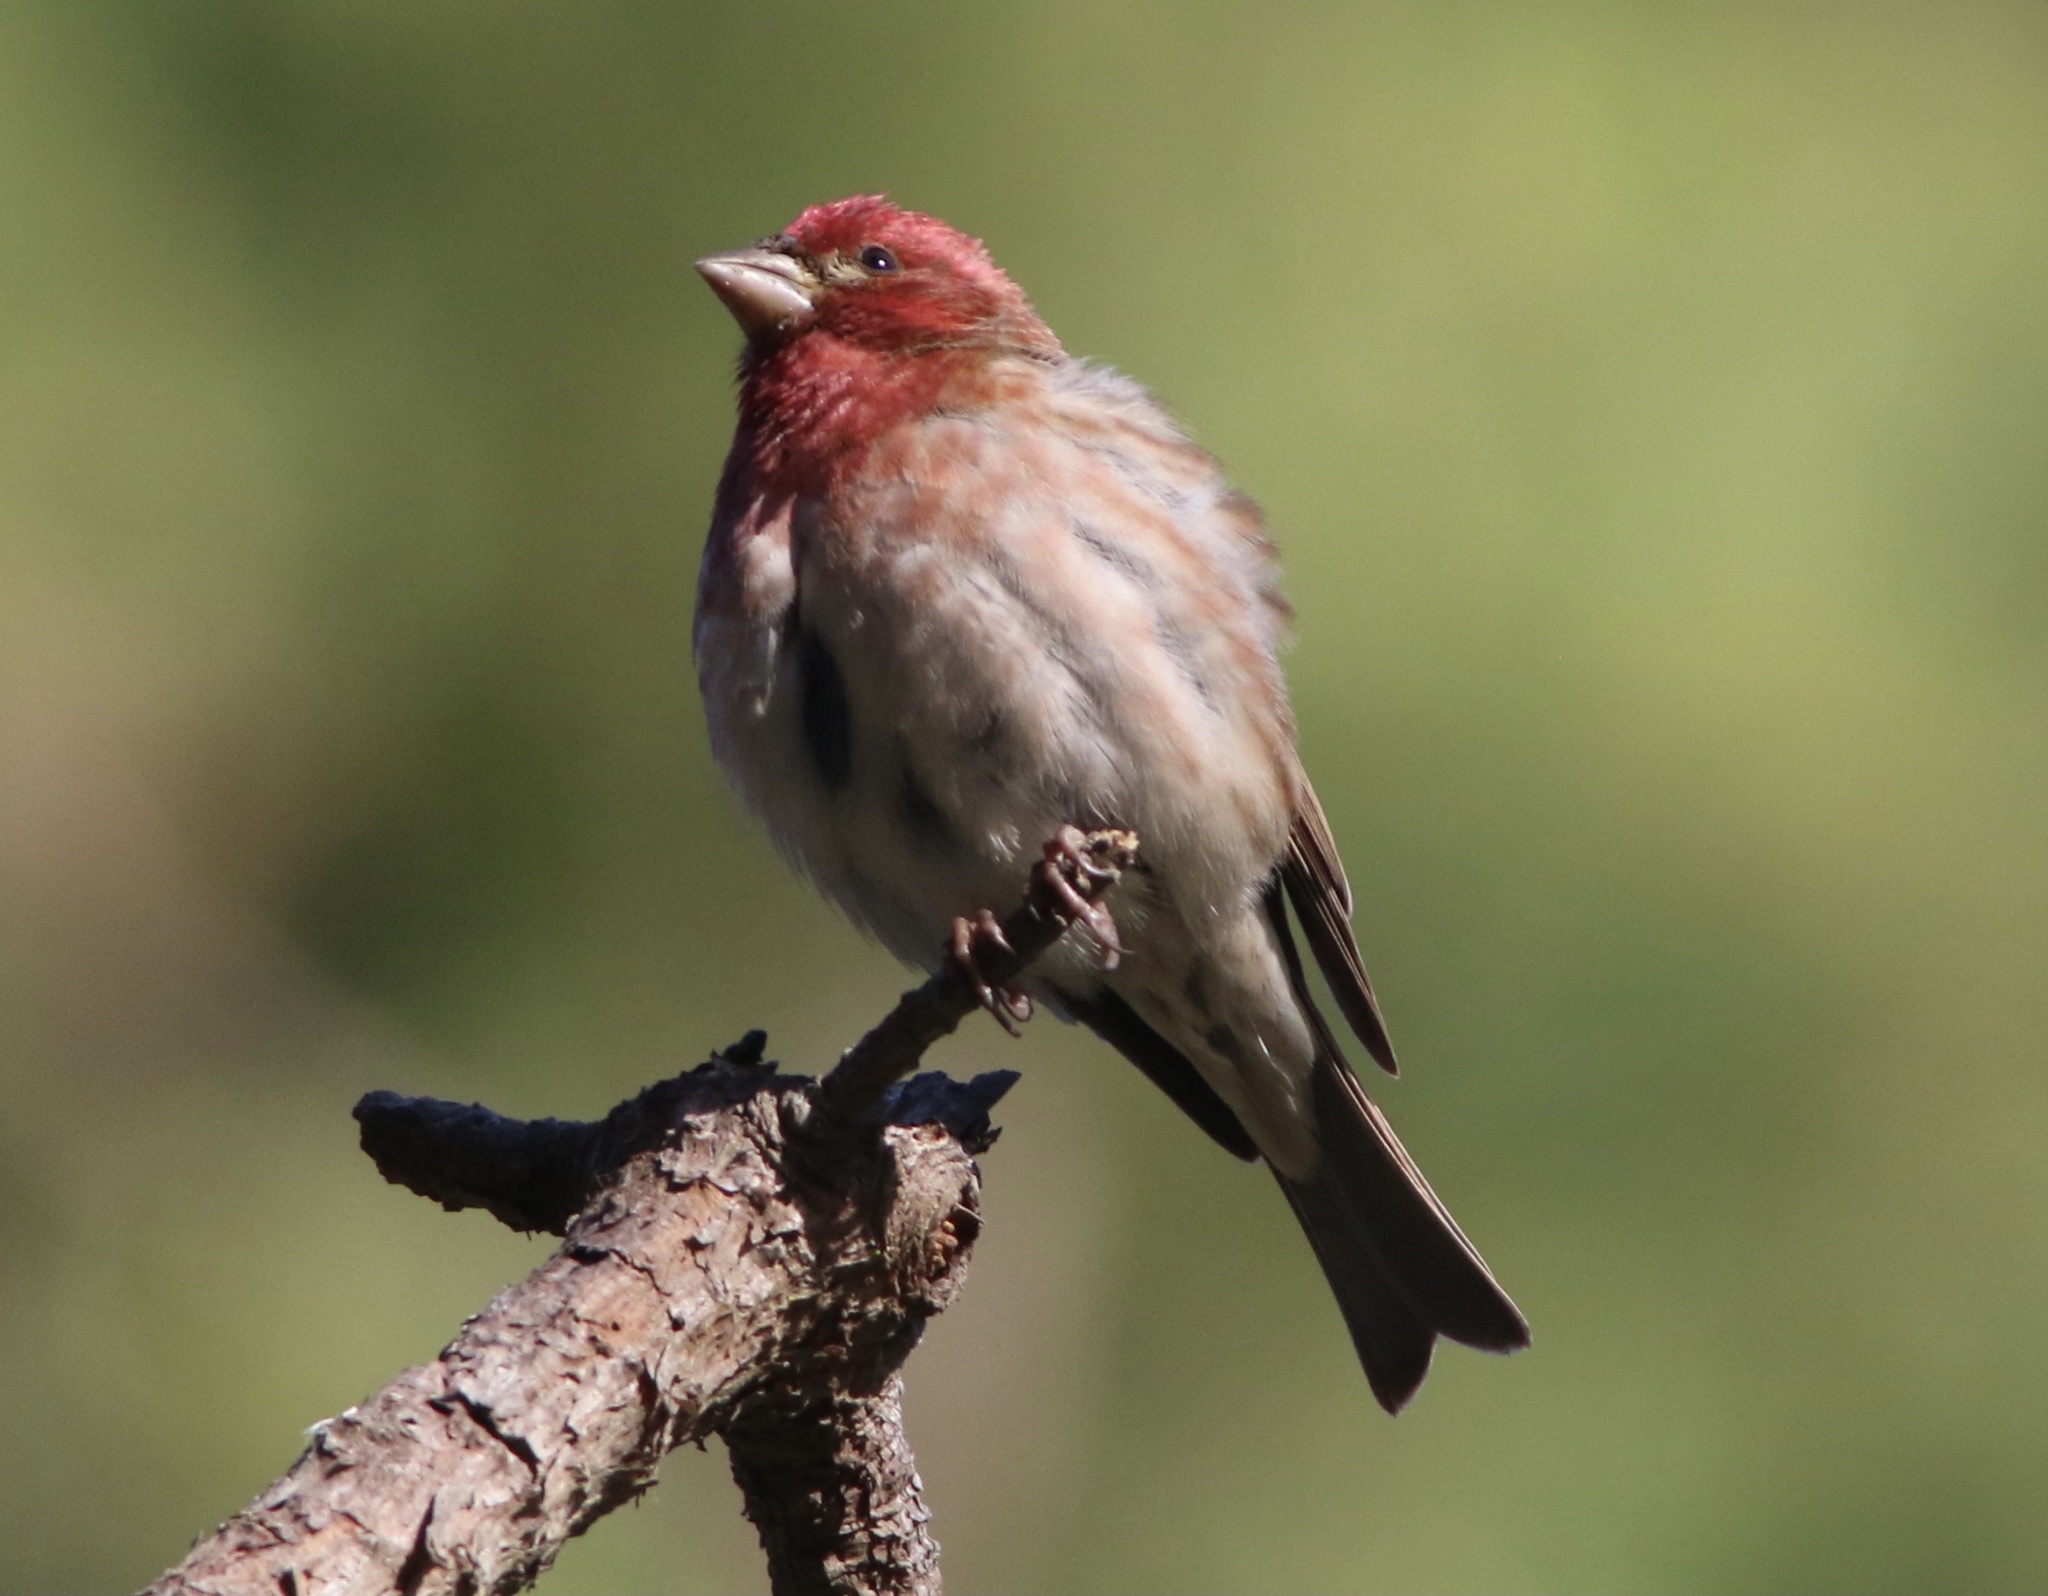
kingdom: Animalia
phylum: Chordata
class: Aves
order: Passeriformes
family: Fringillidae
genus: Haemorhous
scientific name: Haemorhous purpureus
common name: Purple finch
